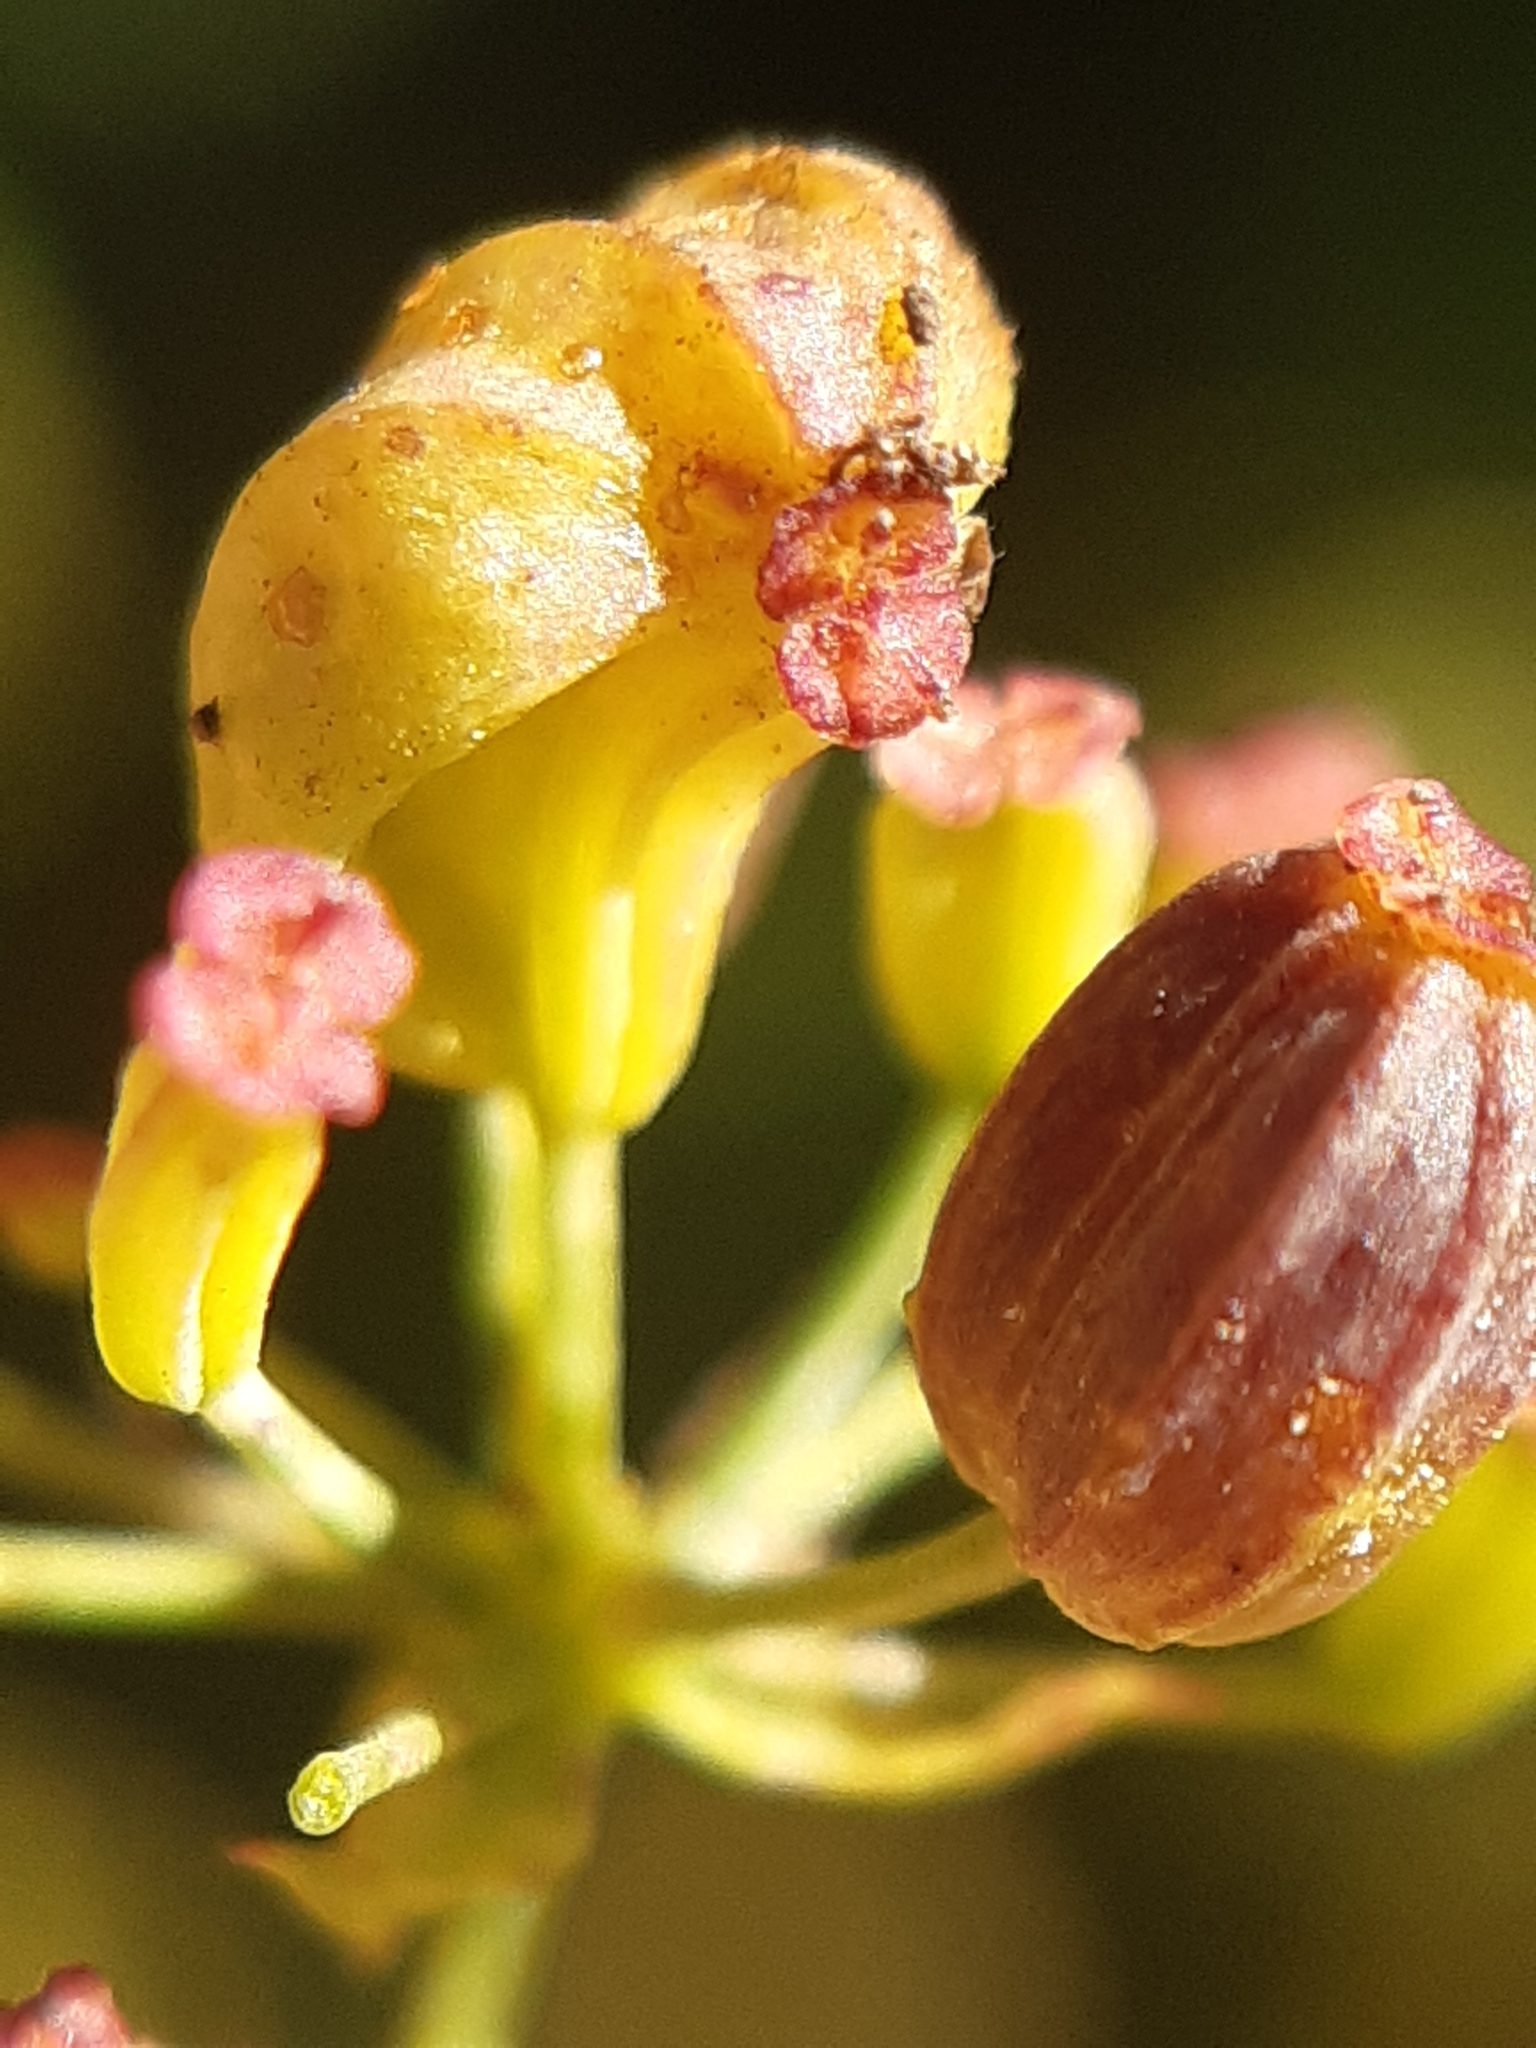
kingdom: Animalia
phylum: Arthropoda
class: Insecta
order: Diptera
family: Cecidomyiidae
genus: Kiefferia
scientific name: Kiefferia pericarpiicola
